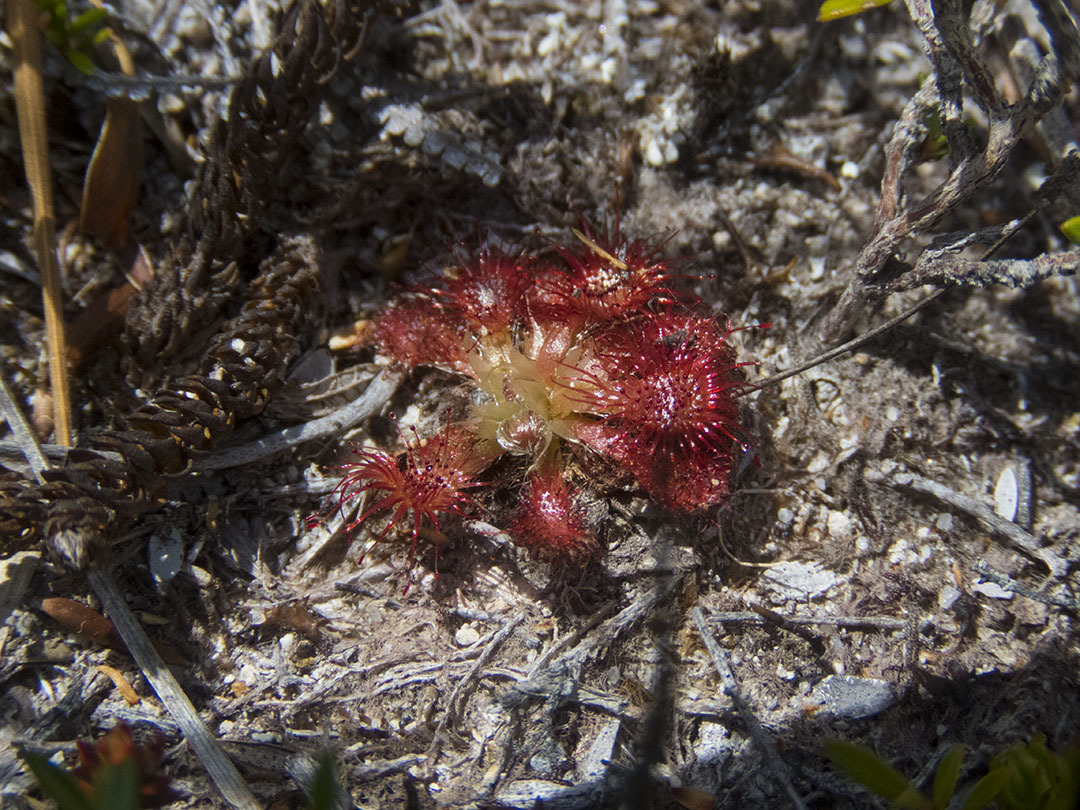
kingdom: Plantae
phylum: Tracheophyta
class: Magnoliopsida
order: Caryophyllales
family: Droseraceae
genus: Drosera
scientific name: Drosera spatulata
